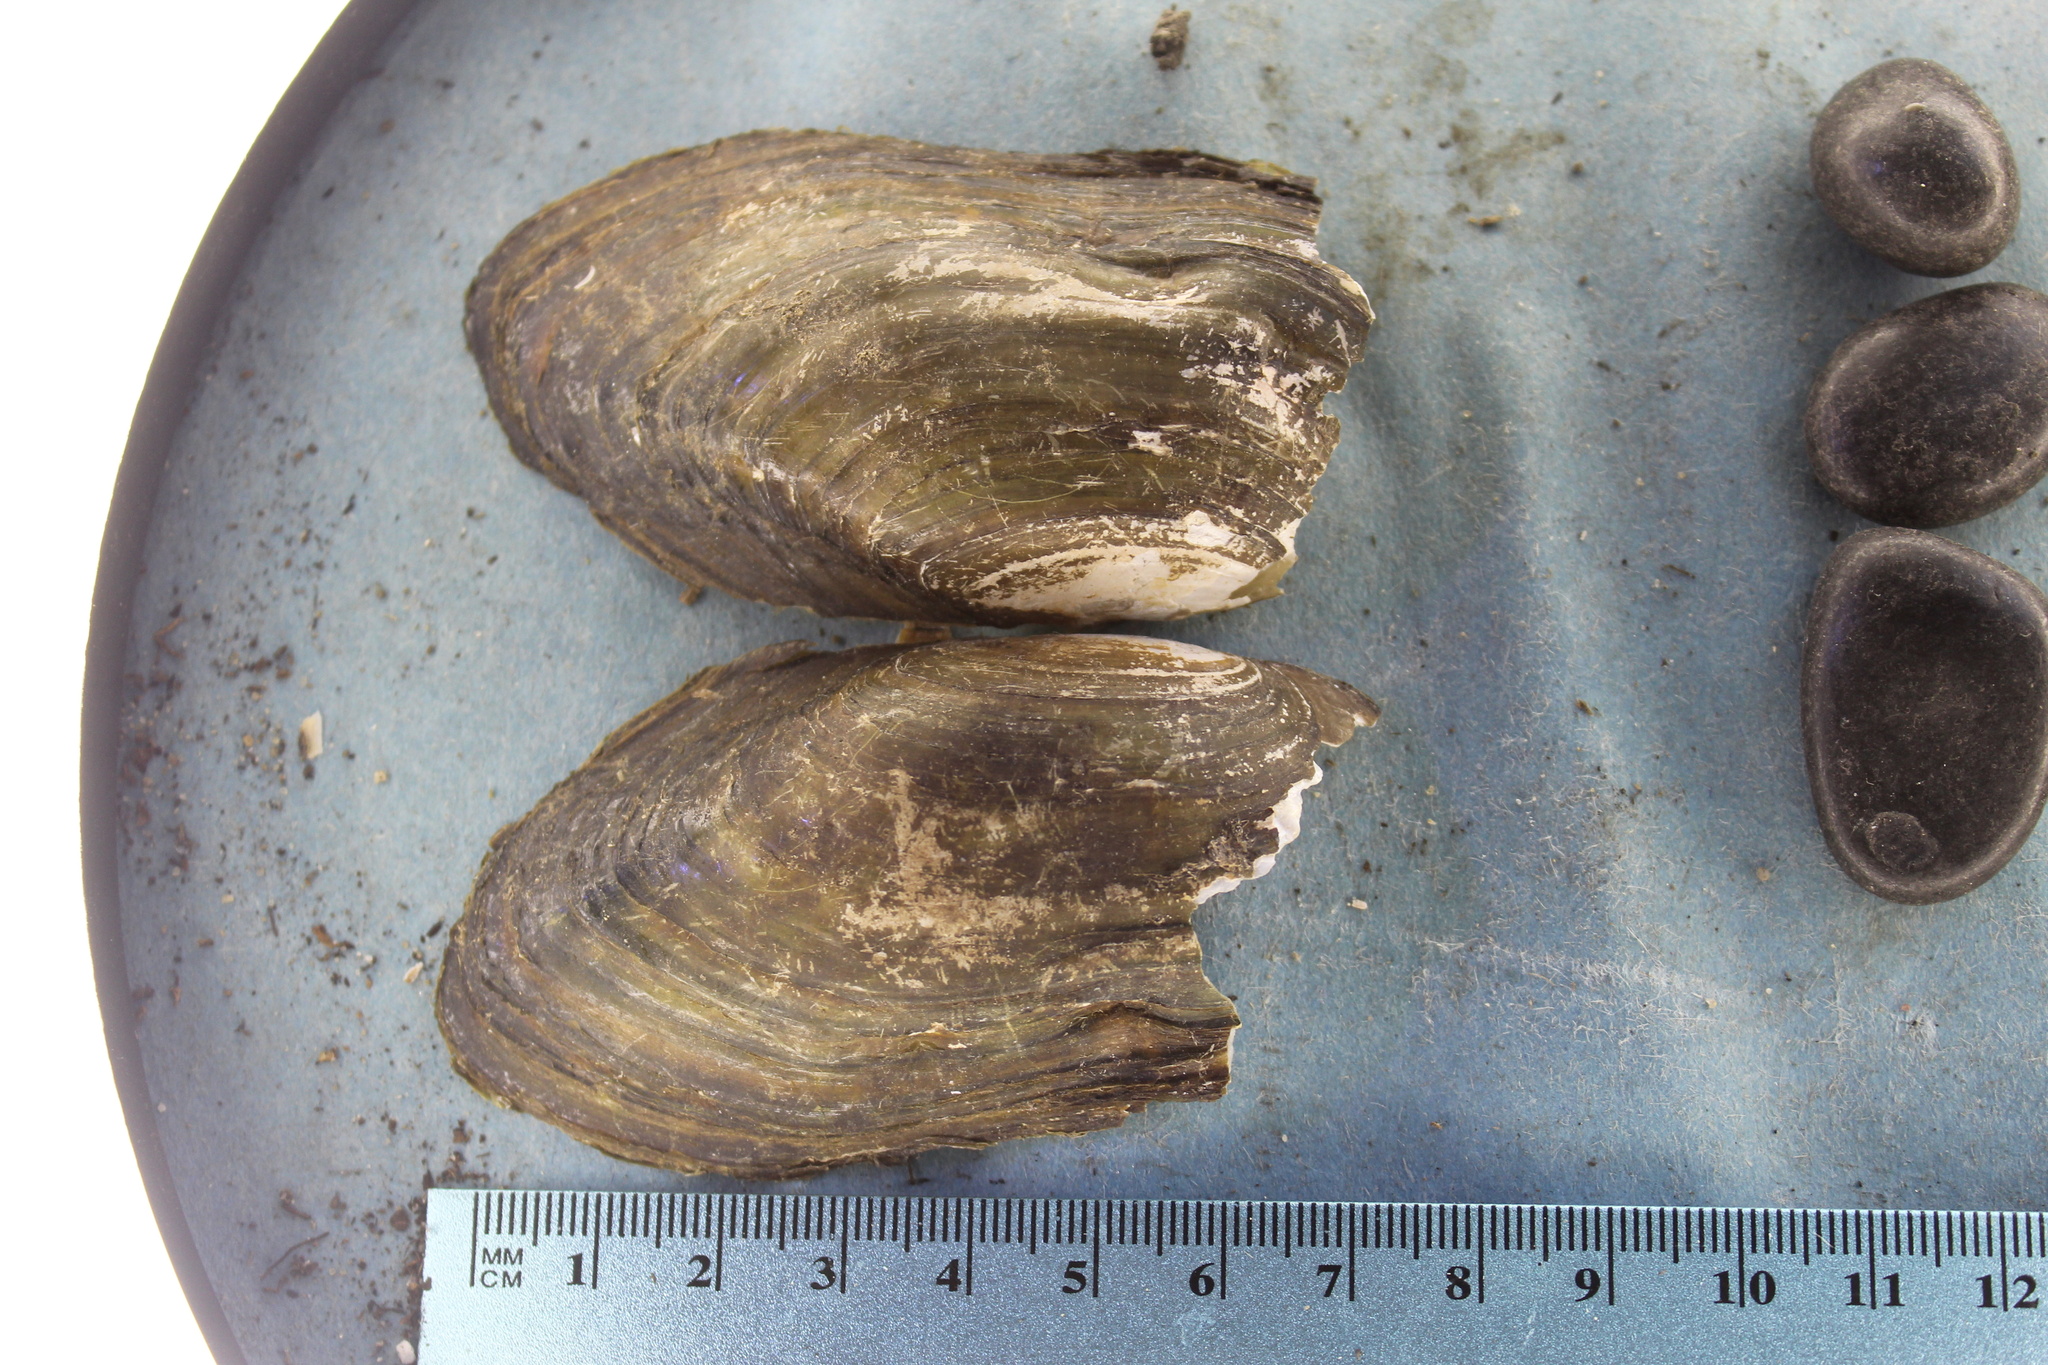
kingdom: Animalia
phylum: Mollusca
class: Bivalvia
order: Unionida
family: Unionidae
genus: Utterbackia
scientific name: Utterbackia imbecillis
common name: Paper pondshell
